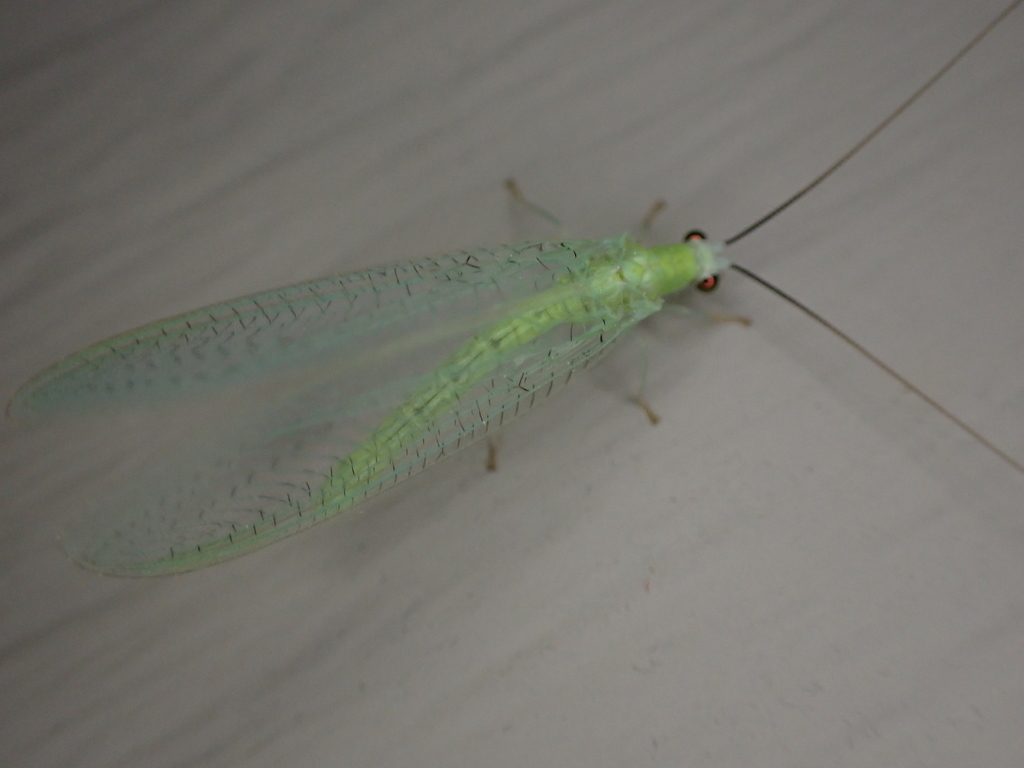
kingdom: Animalia
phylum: Arthropoda
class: Insecta
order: Neuroptera
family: Chrysopidae
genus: Chrysopa
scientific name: Chrysopa nigricornis
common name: Black-horned green lacewing
